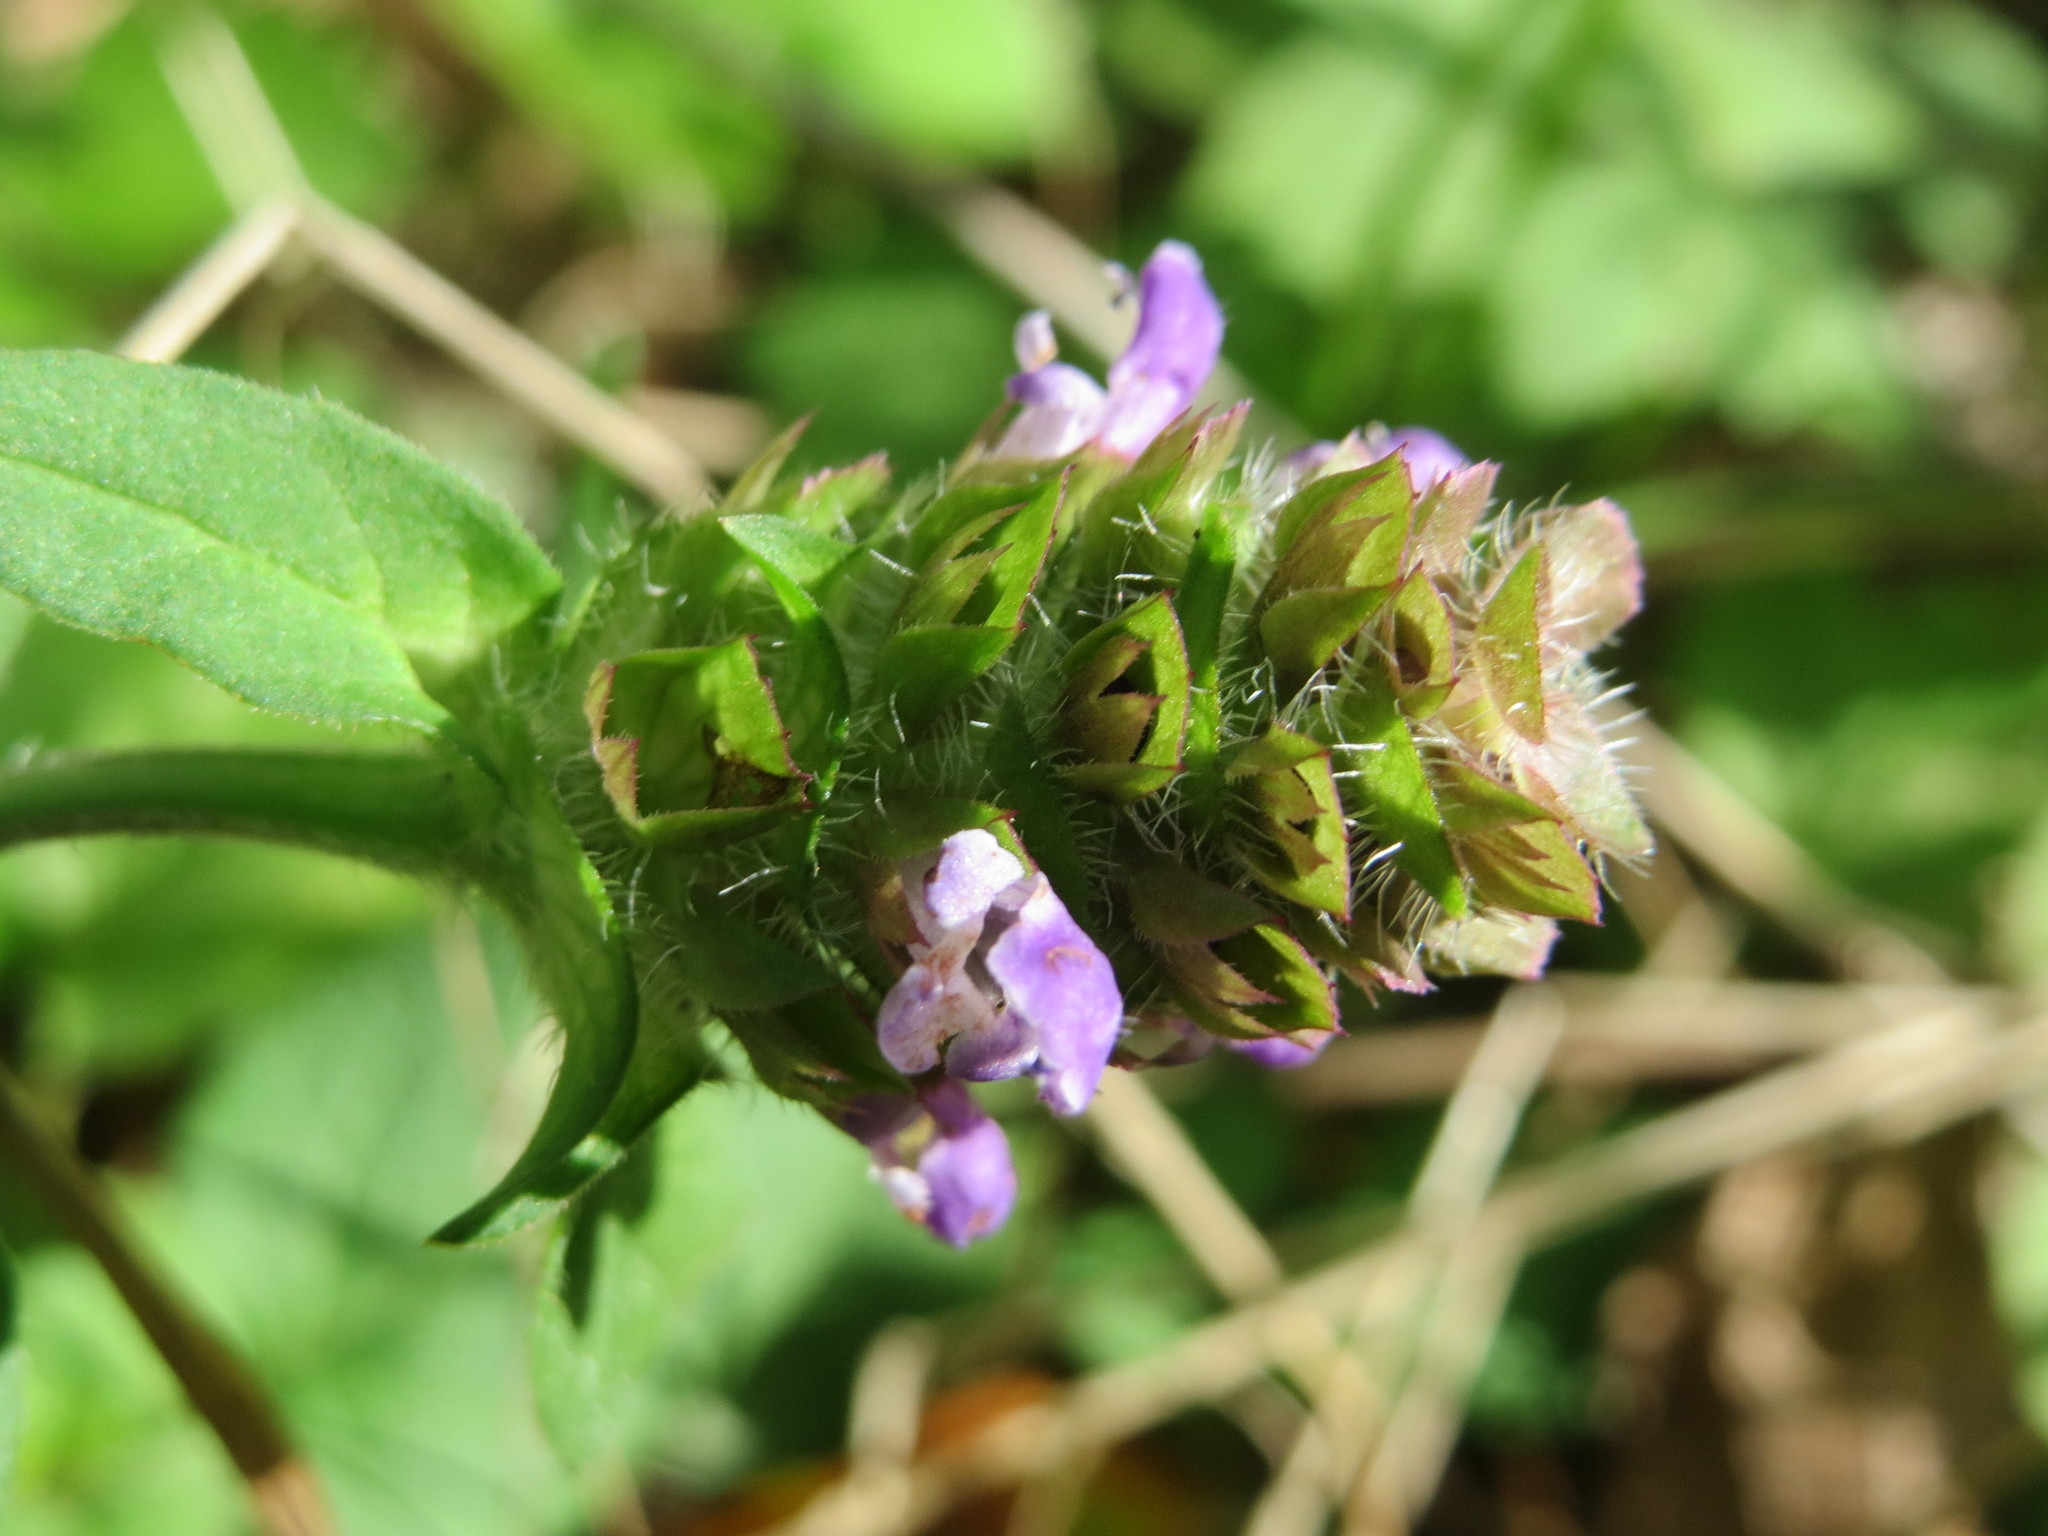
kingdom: Plantae
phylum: Tracheophyta
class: Magnoliopsida
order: Lamiales
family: Lamiaceae
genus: Prunella
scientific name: Prunella vulgaris
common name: Heal-all
